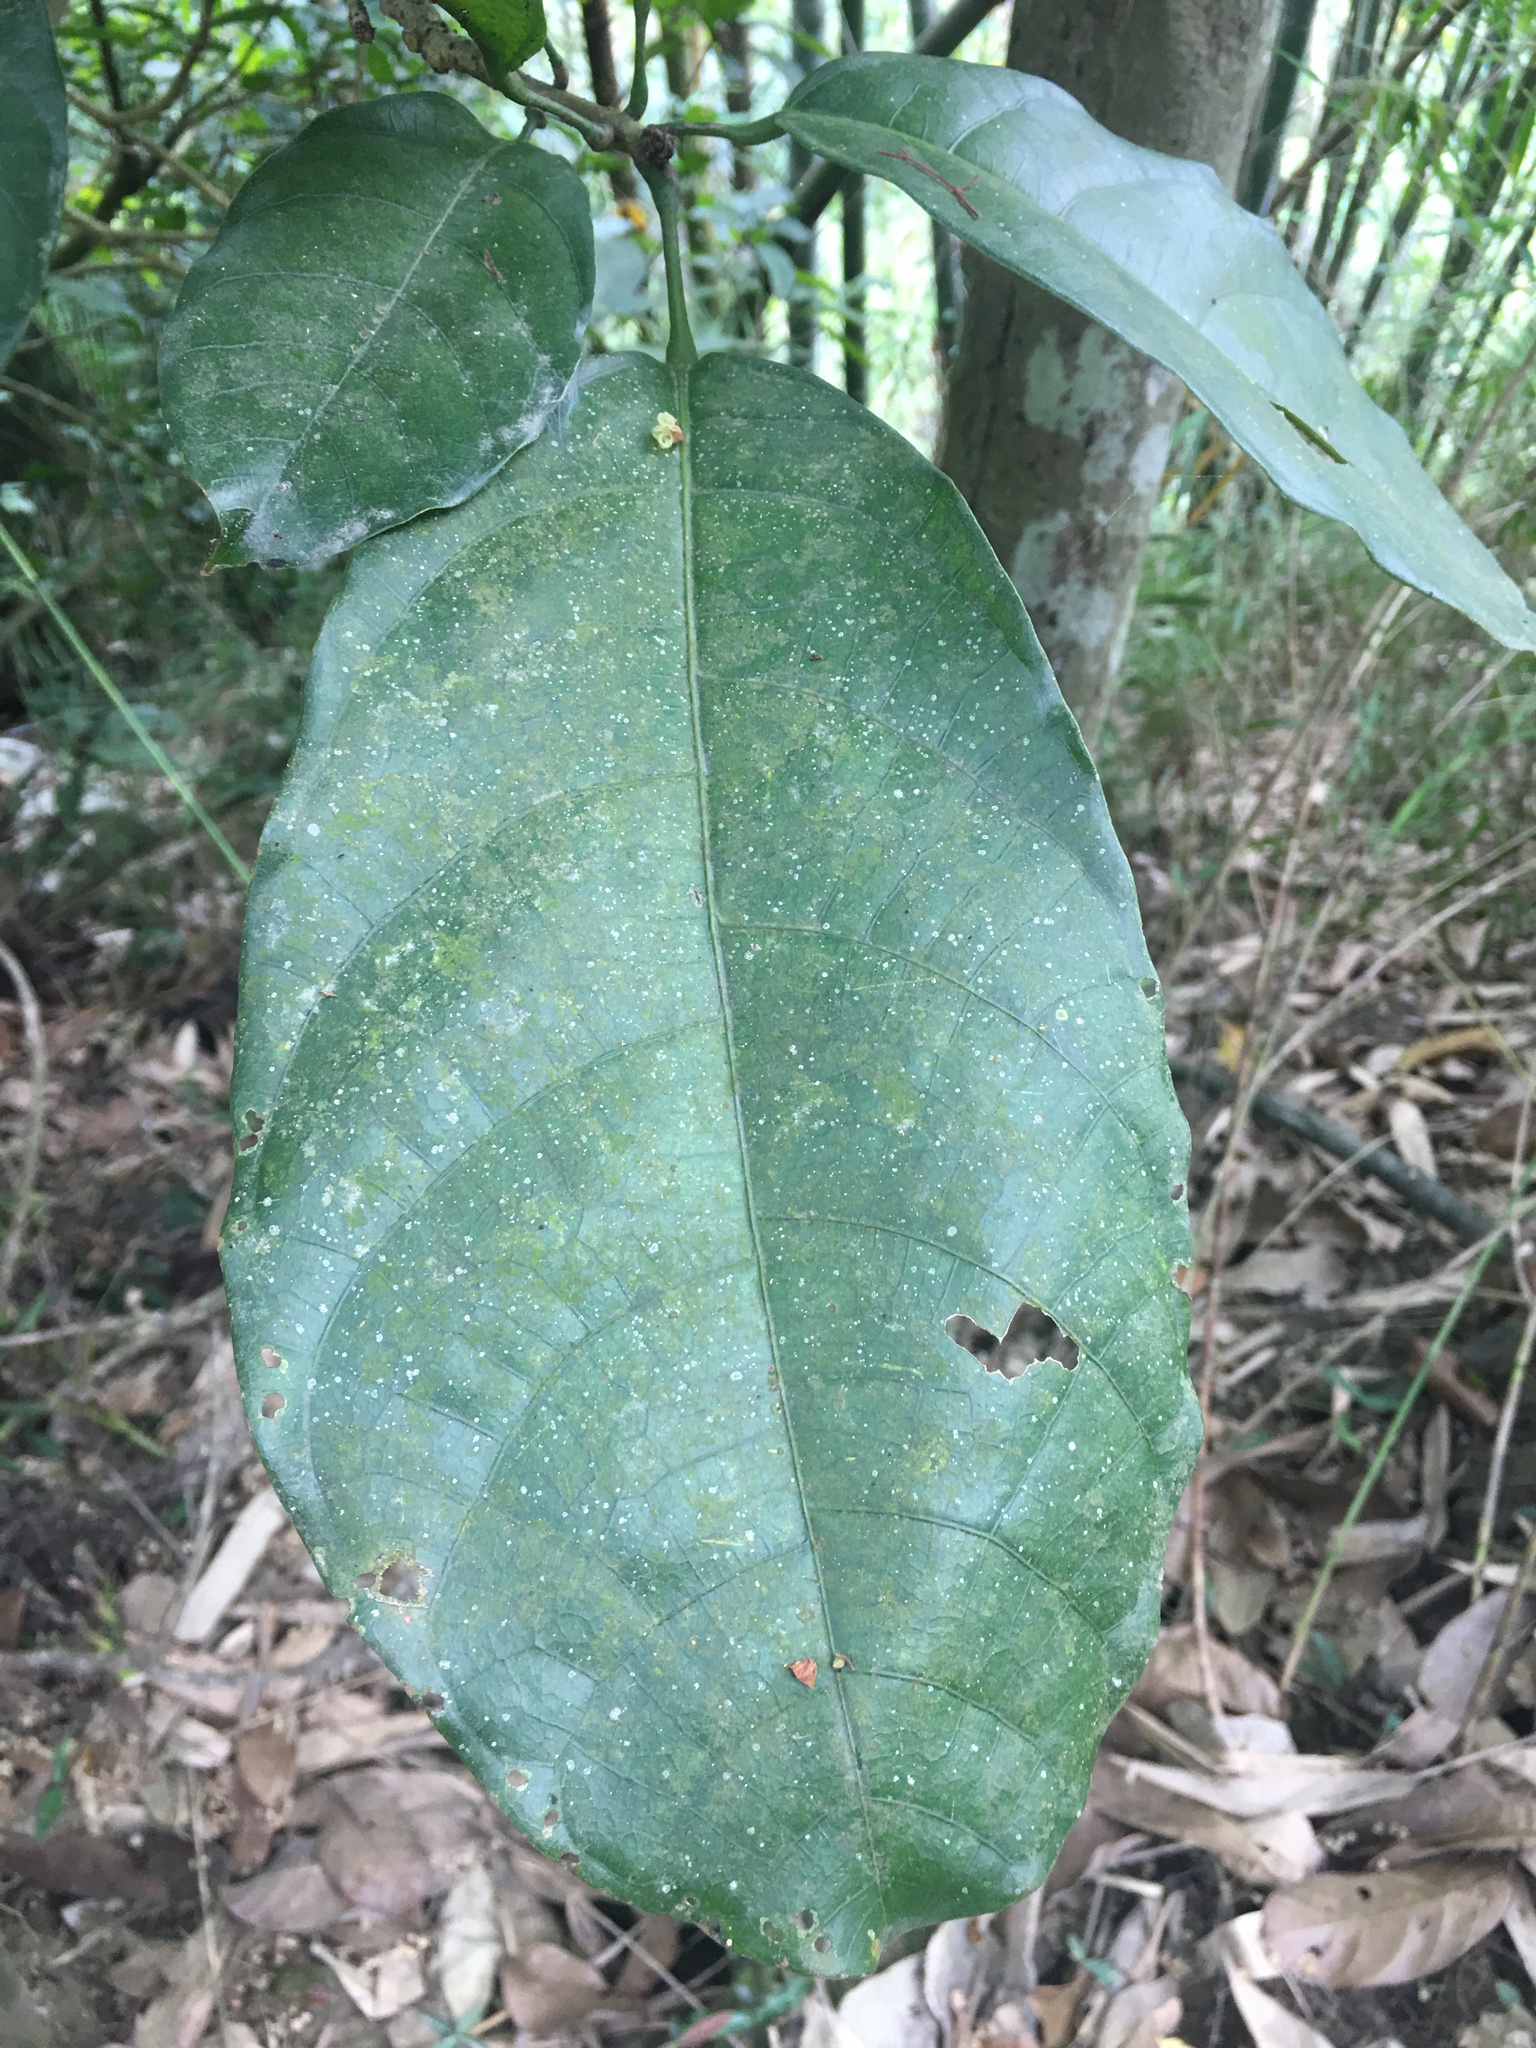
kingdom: Plantae
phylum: Tracheophyta
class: Magnoliopsida
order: Malvales
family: Malvaceae
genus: Sterculia
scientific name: Sterculia monosperma
